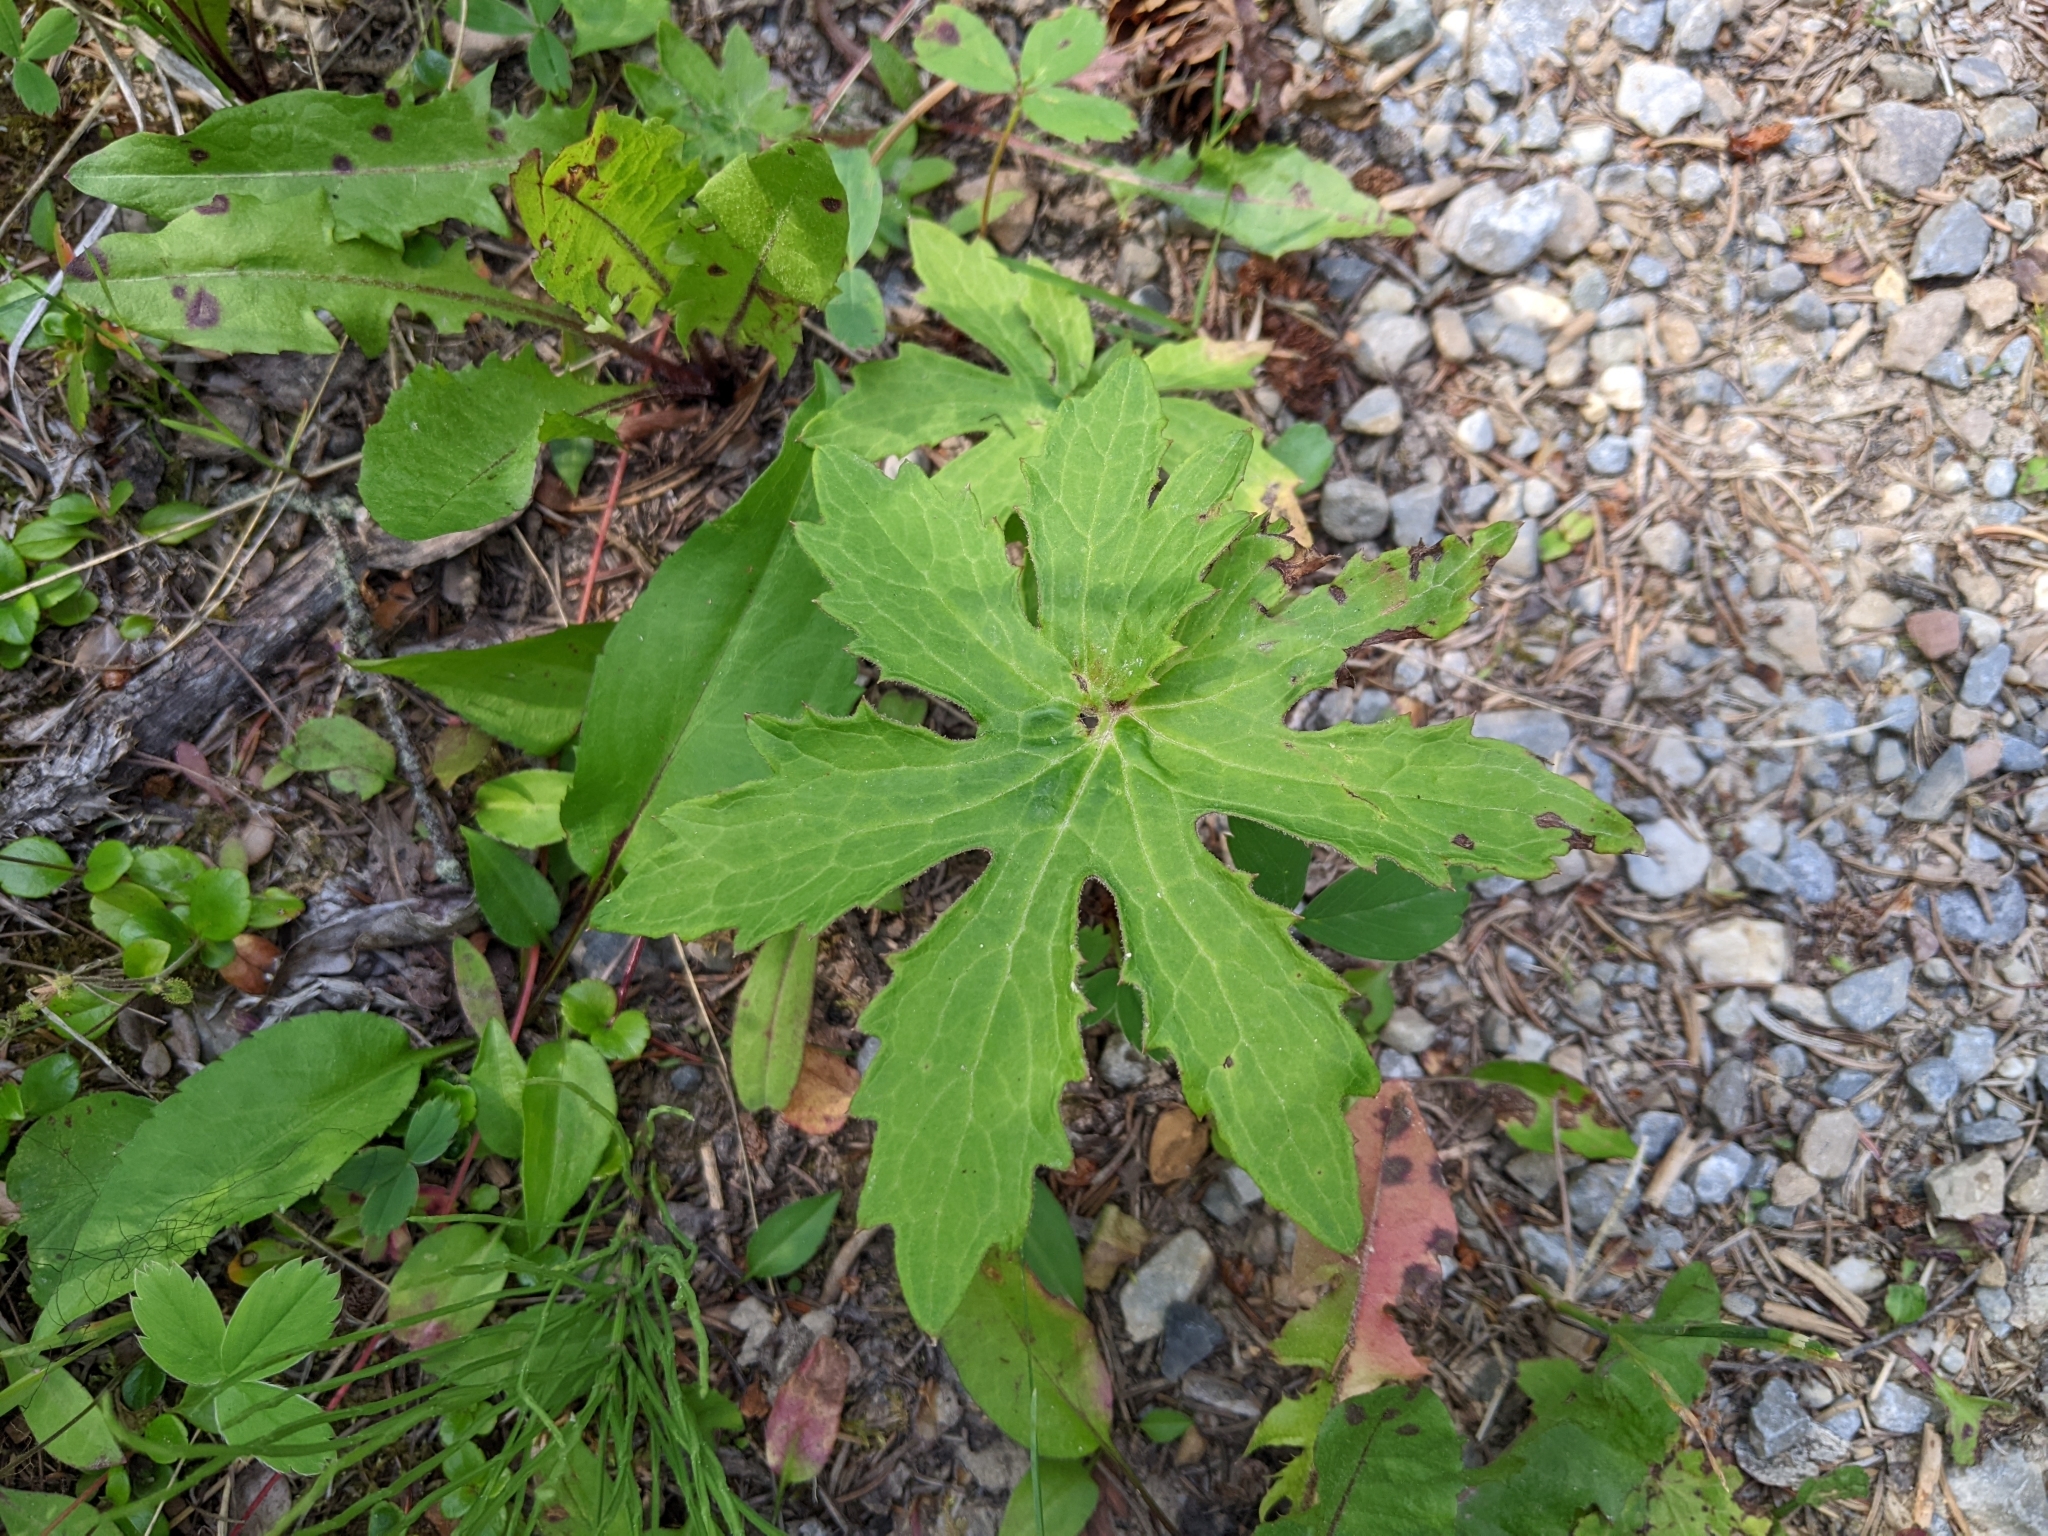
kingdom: Plantae
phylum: Tracheophyta
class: Magnoliopsida
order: Asterales
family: Asteraceae
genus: Petasites
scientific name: Petasites frigidus
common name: Arctic butterbur
